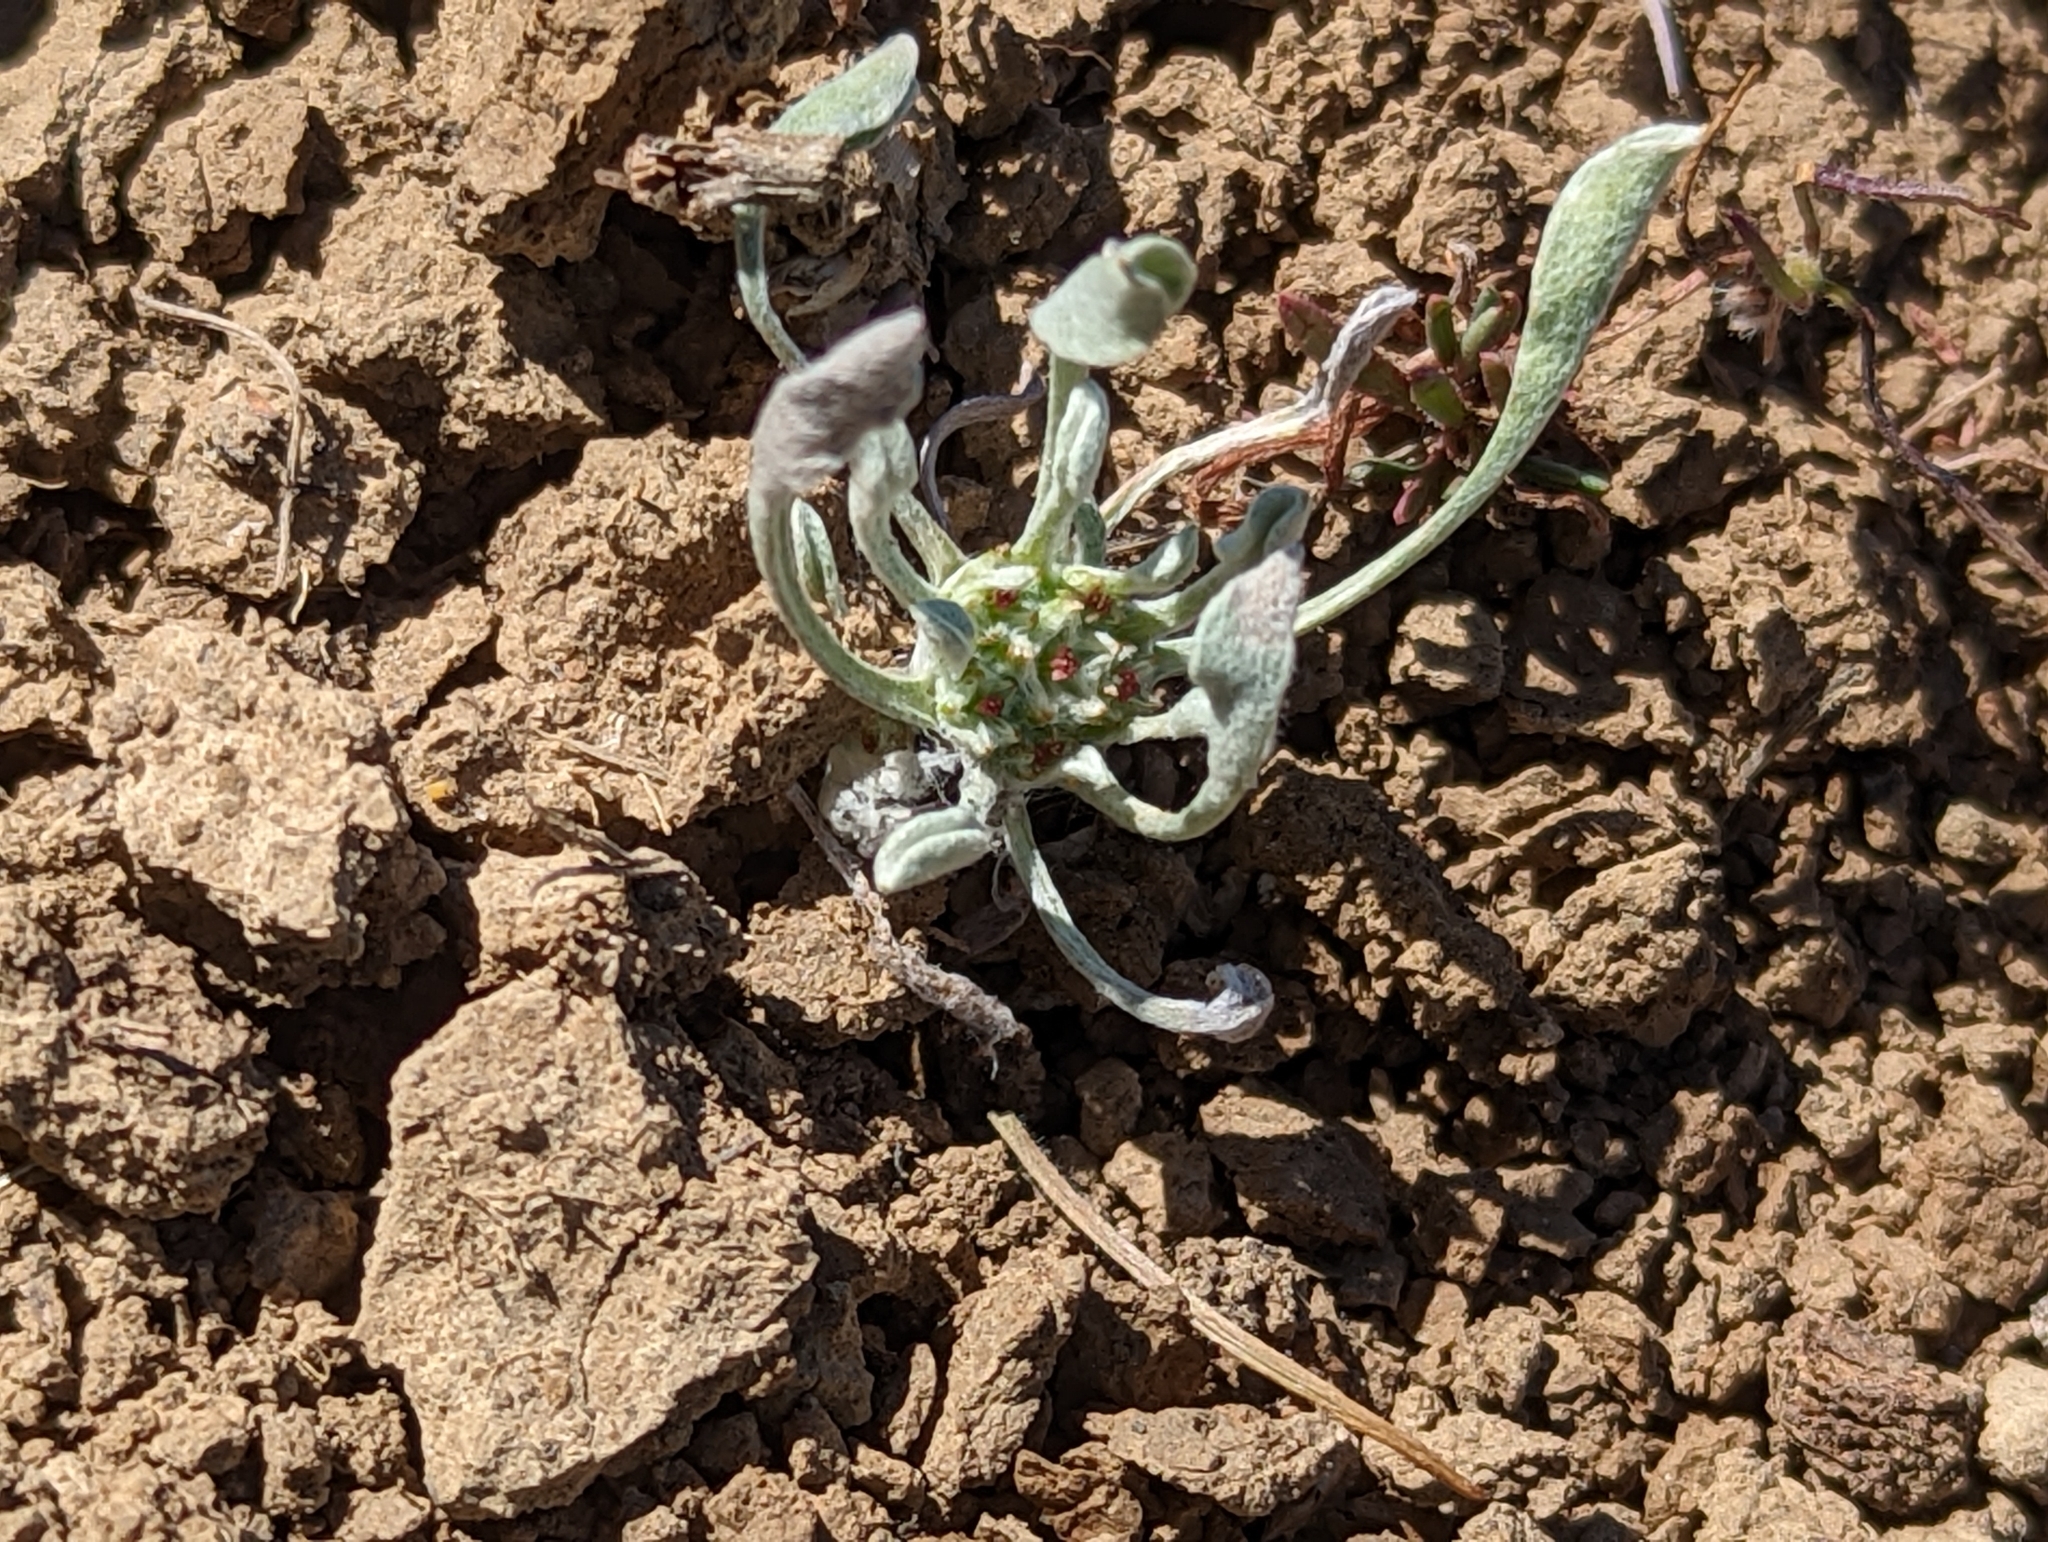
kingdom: Plantae
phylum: Tracheophyta
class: Magnoliopsida
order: Asterales
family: Asteraceae
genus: Hesperevax
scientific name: Hesperevax caulescens
